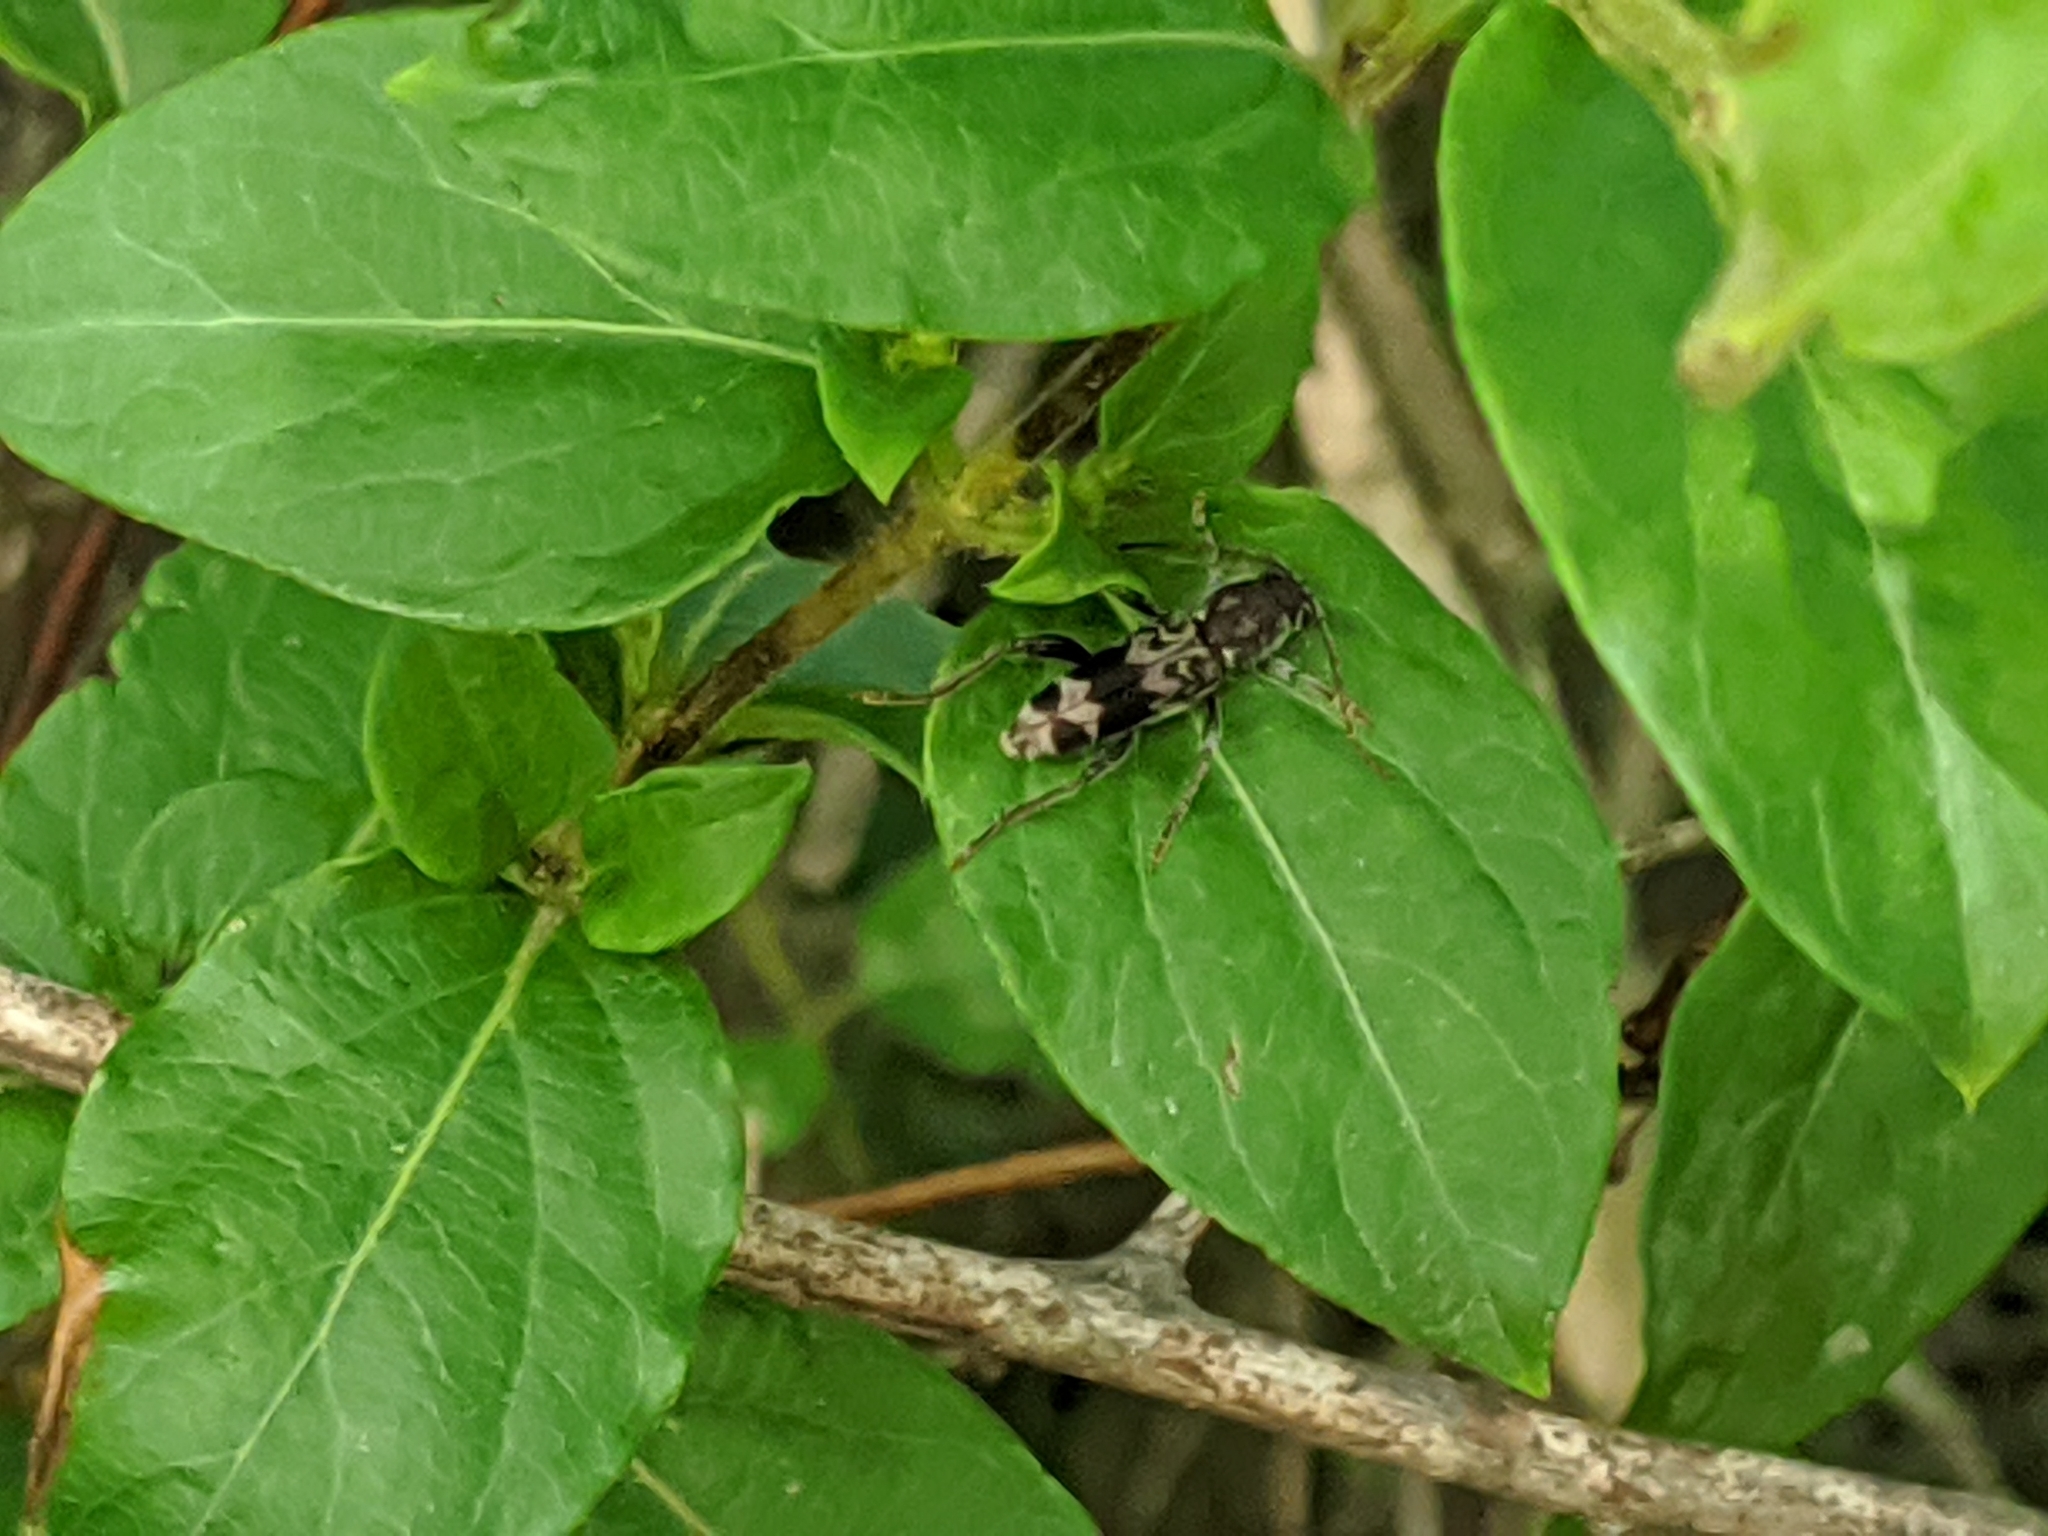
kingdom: Animalia
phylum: Arthropoda
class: Insecta
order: Coleoptera
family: Cerambycidae
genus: Xylotrechus
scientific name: Xylotrechus colonus
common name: Long-horned beetle
